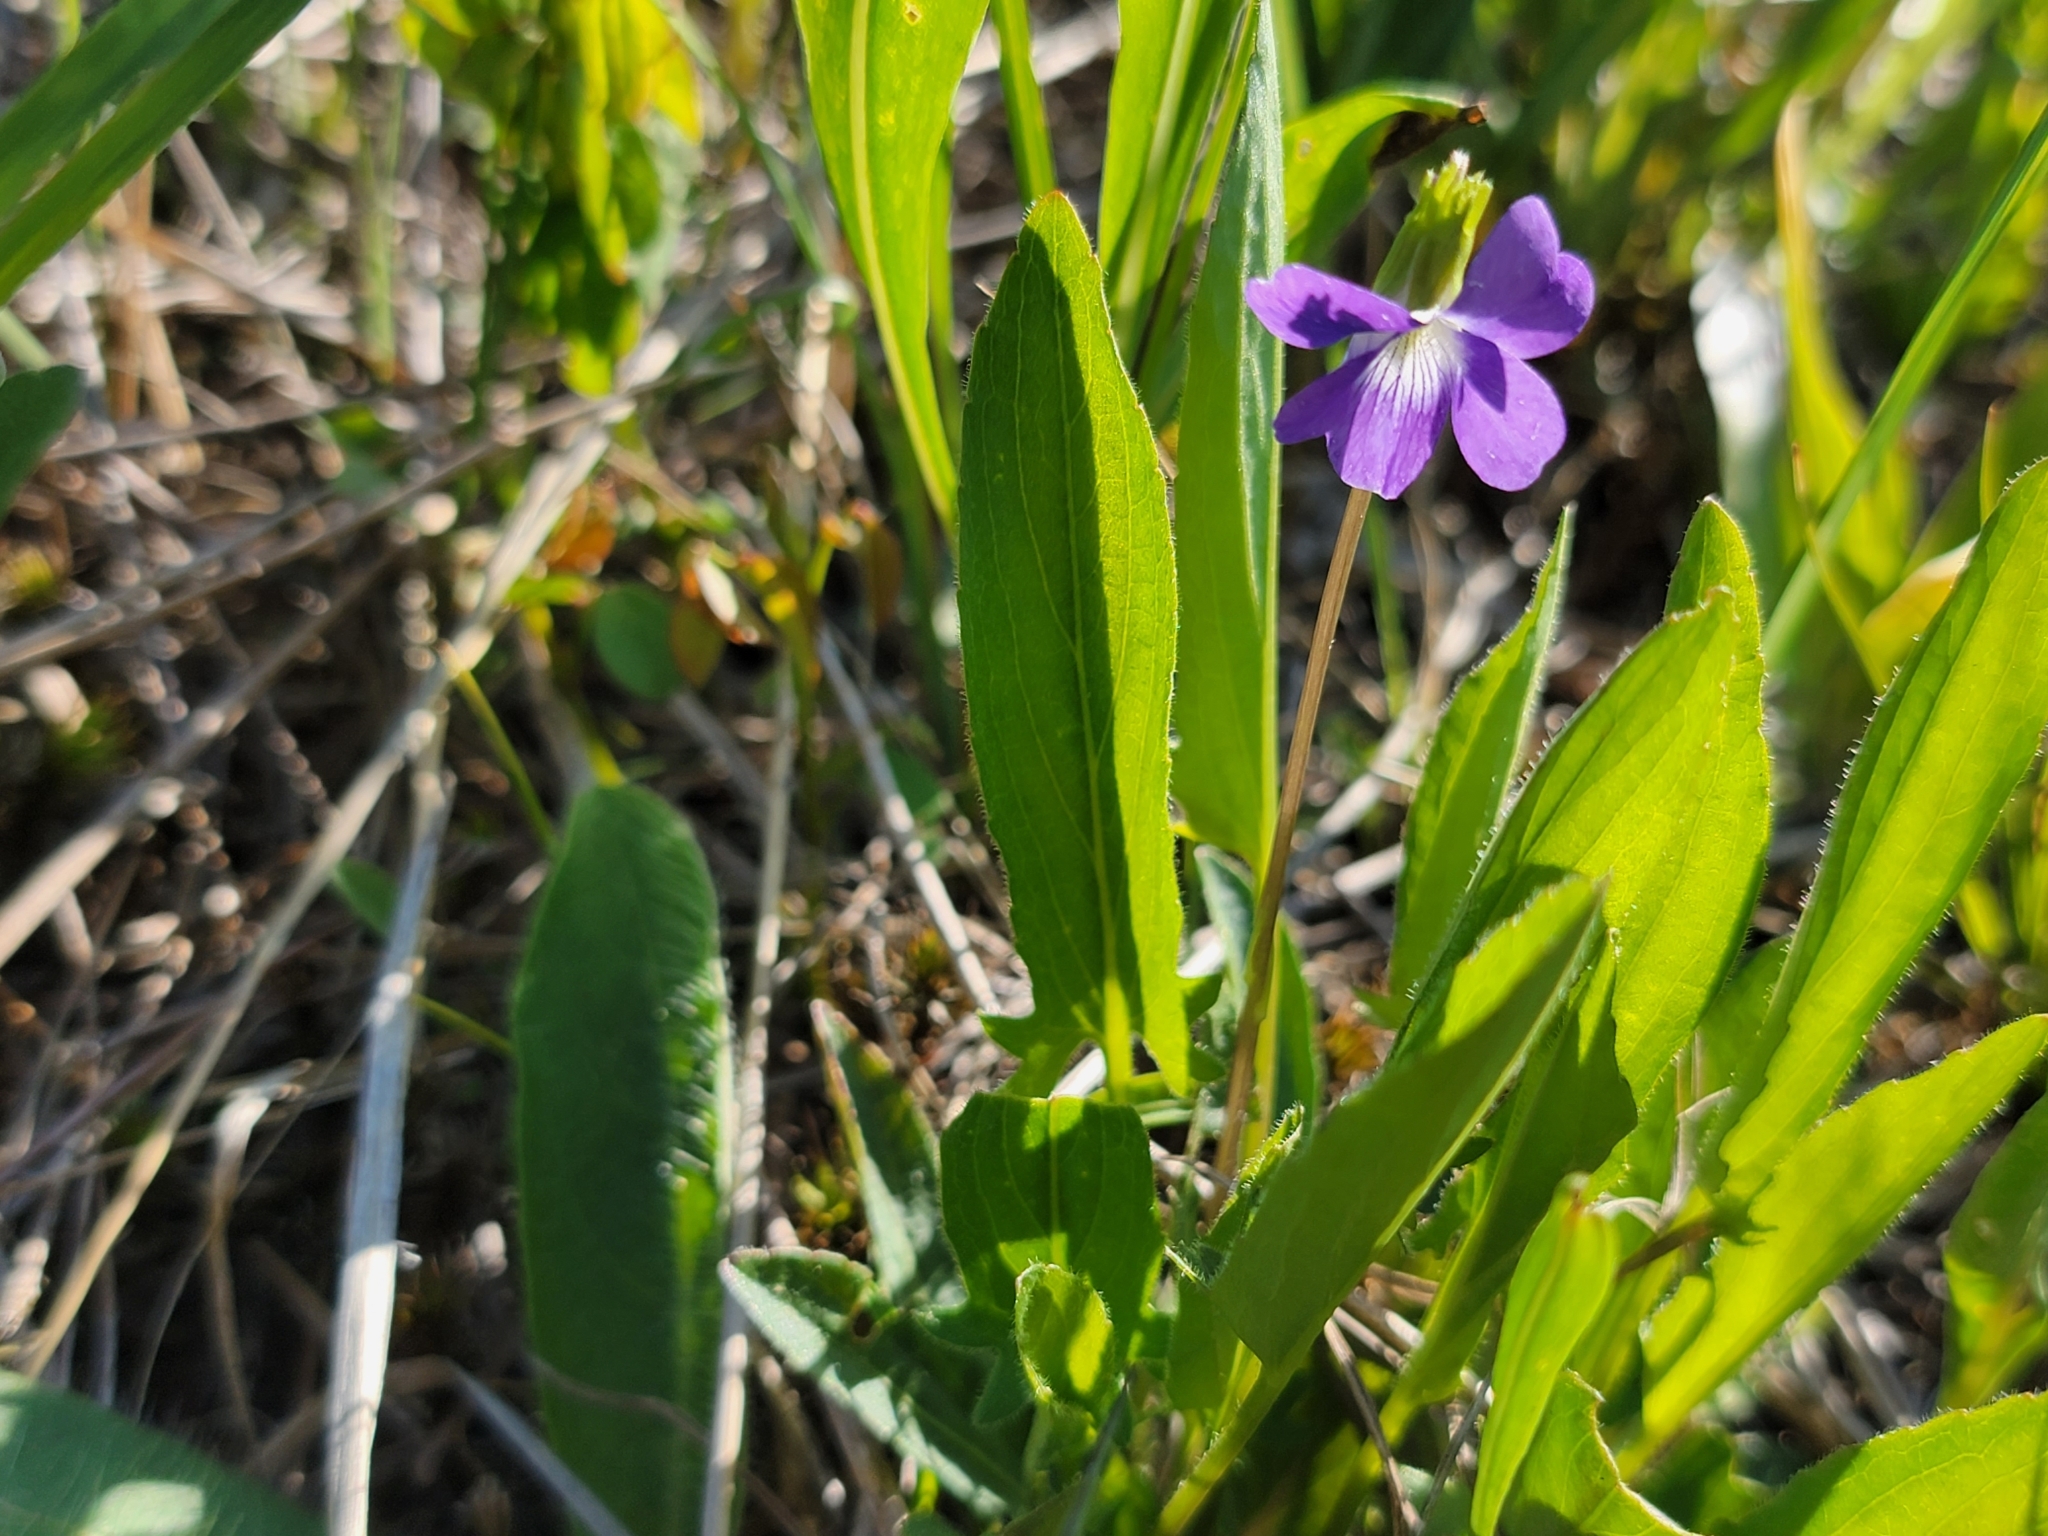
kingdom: Plantae
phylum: Tracheophyta
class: Magnoliopsida
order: Malpighiales
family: Violaceae
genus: Viola
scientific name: Viola sagittata
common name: Arrowhead violet
